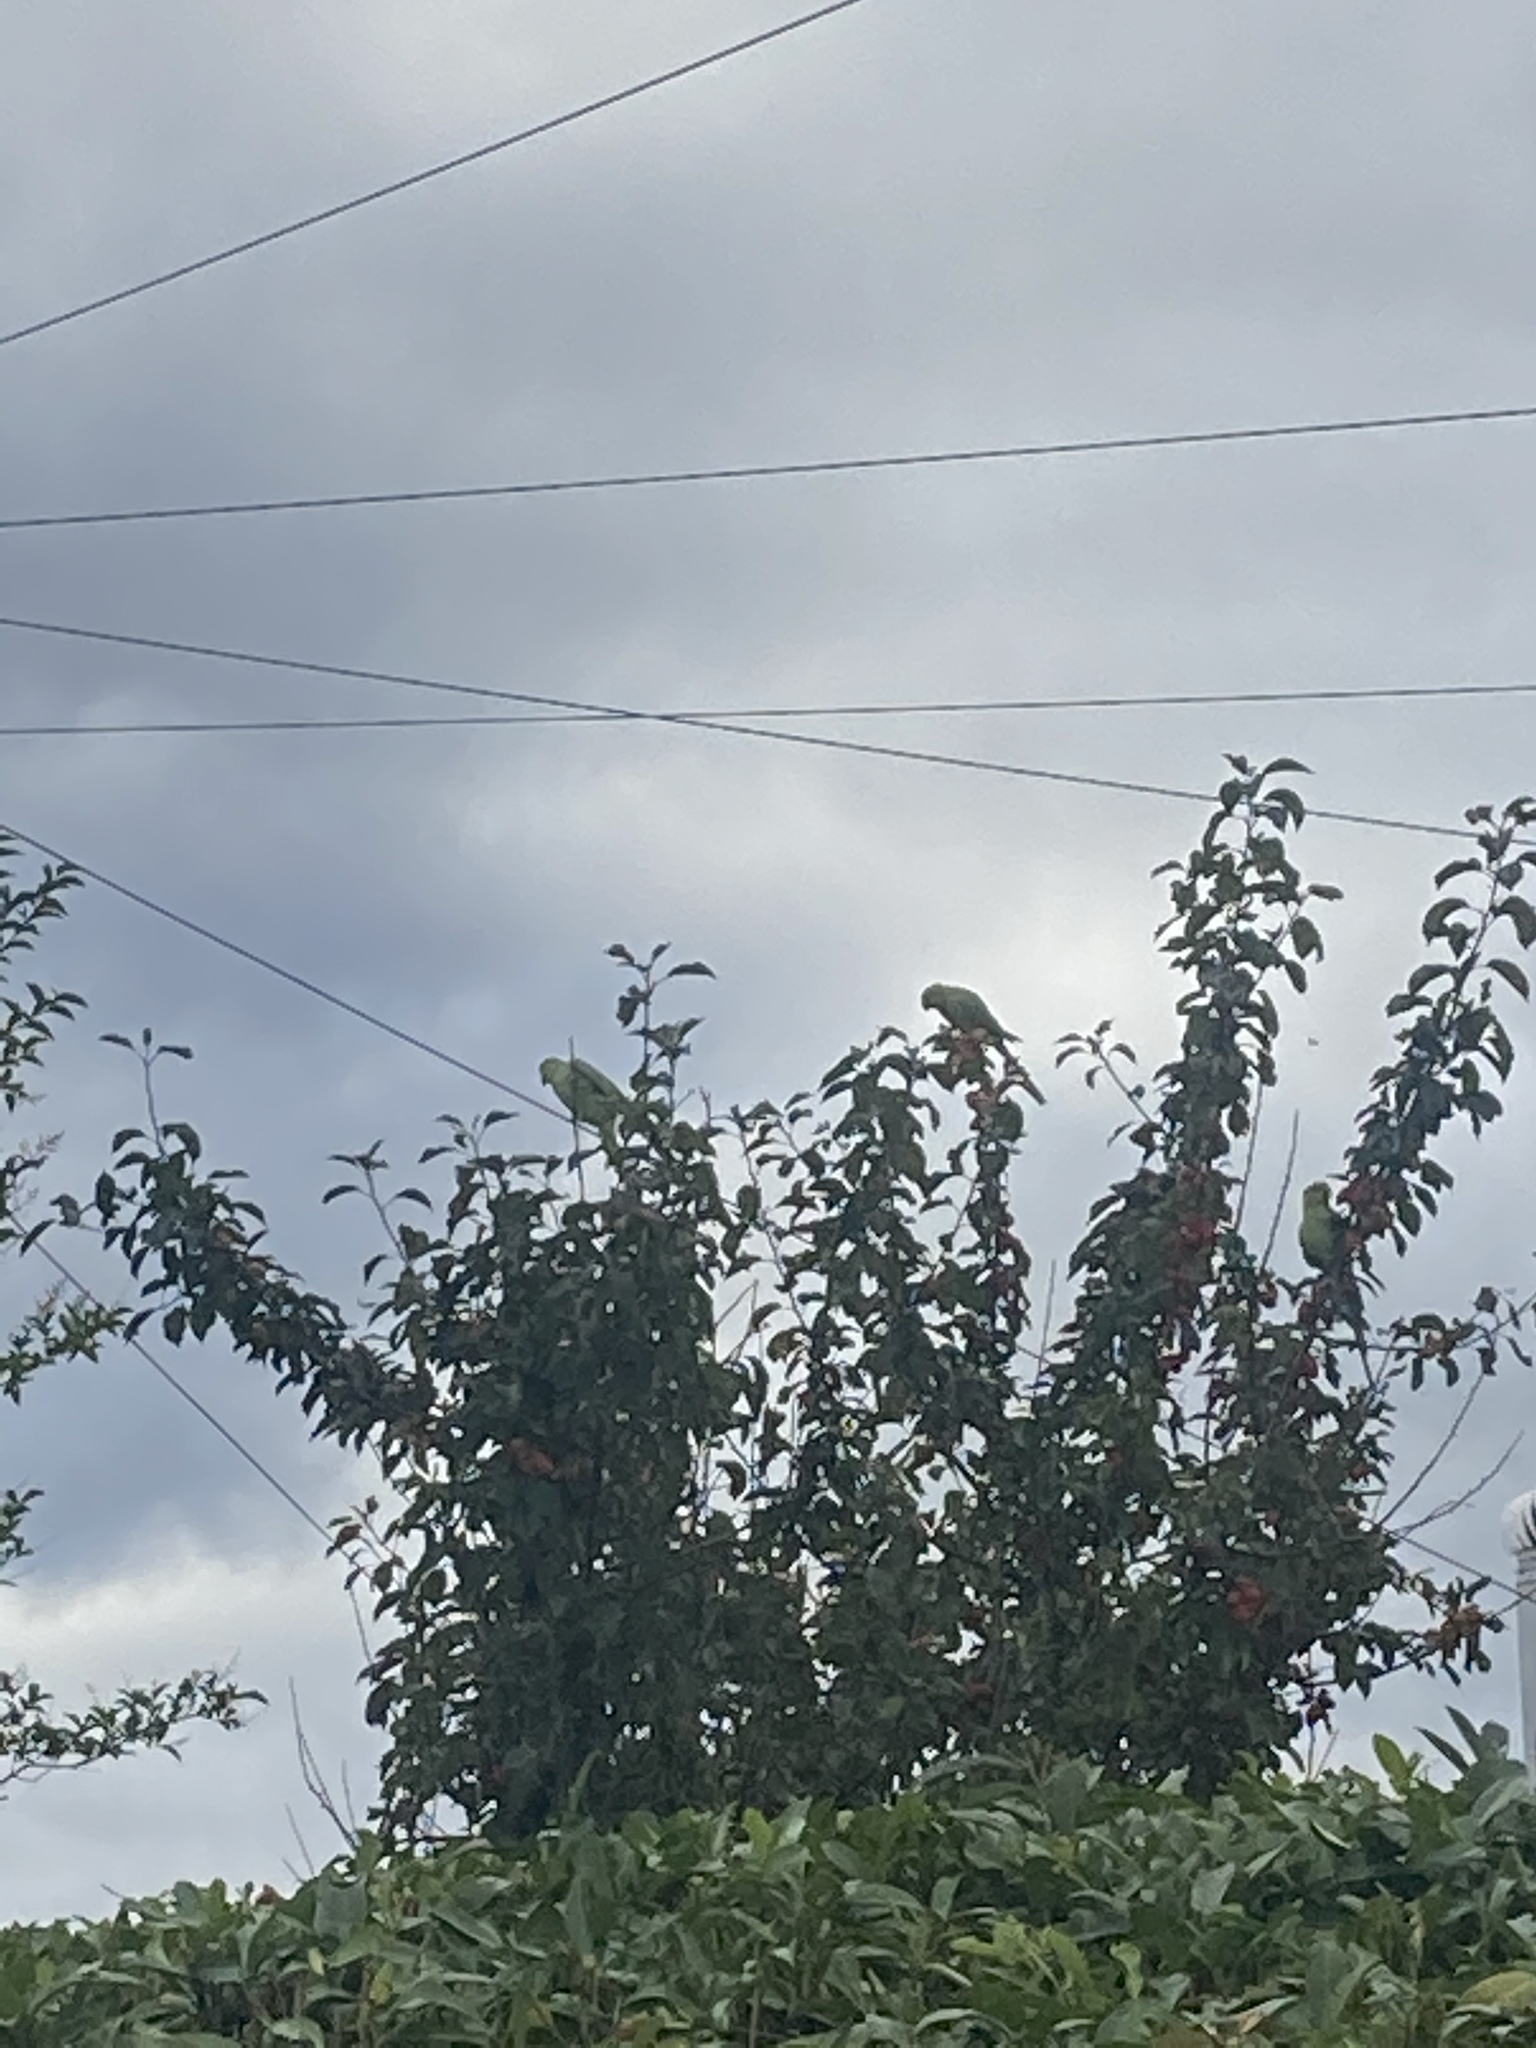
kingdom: Animalia
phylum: Chordata
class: Aves
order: Psittaciformes
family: Psittacidae
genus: Psittacula
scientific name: Psittacula krameri
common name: Rose-ringed parakeet
